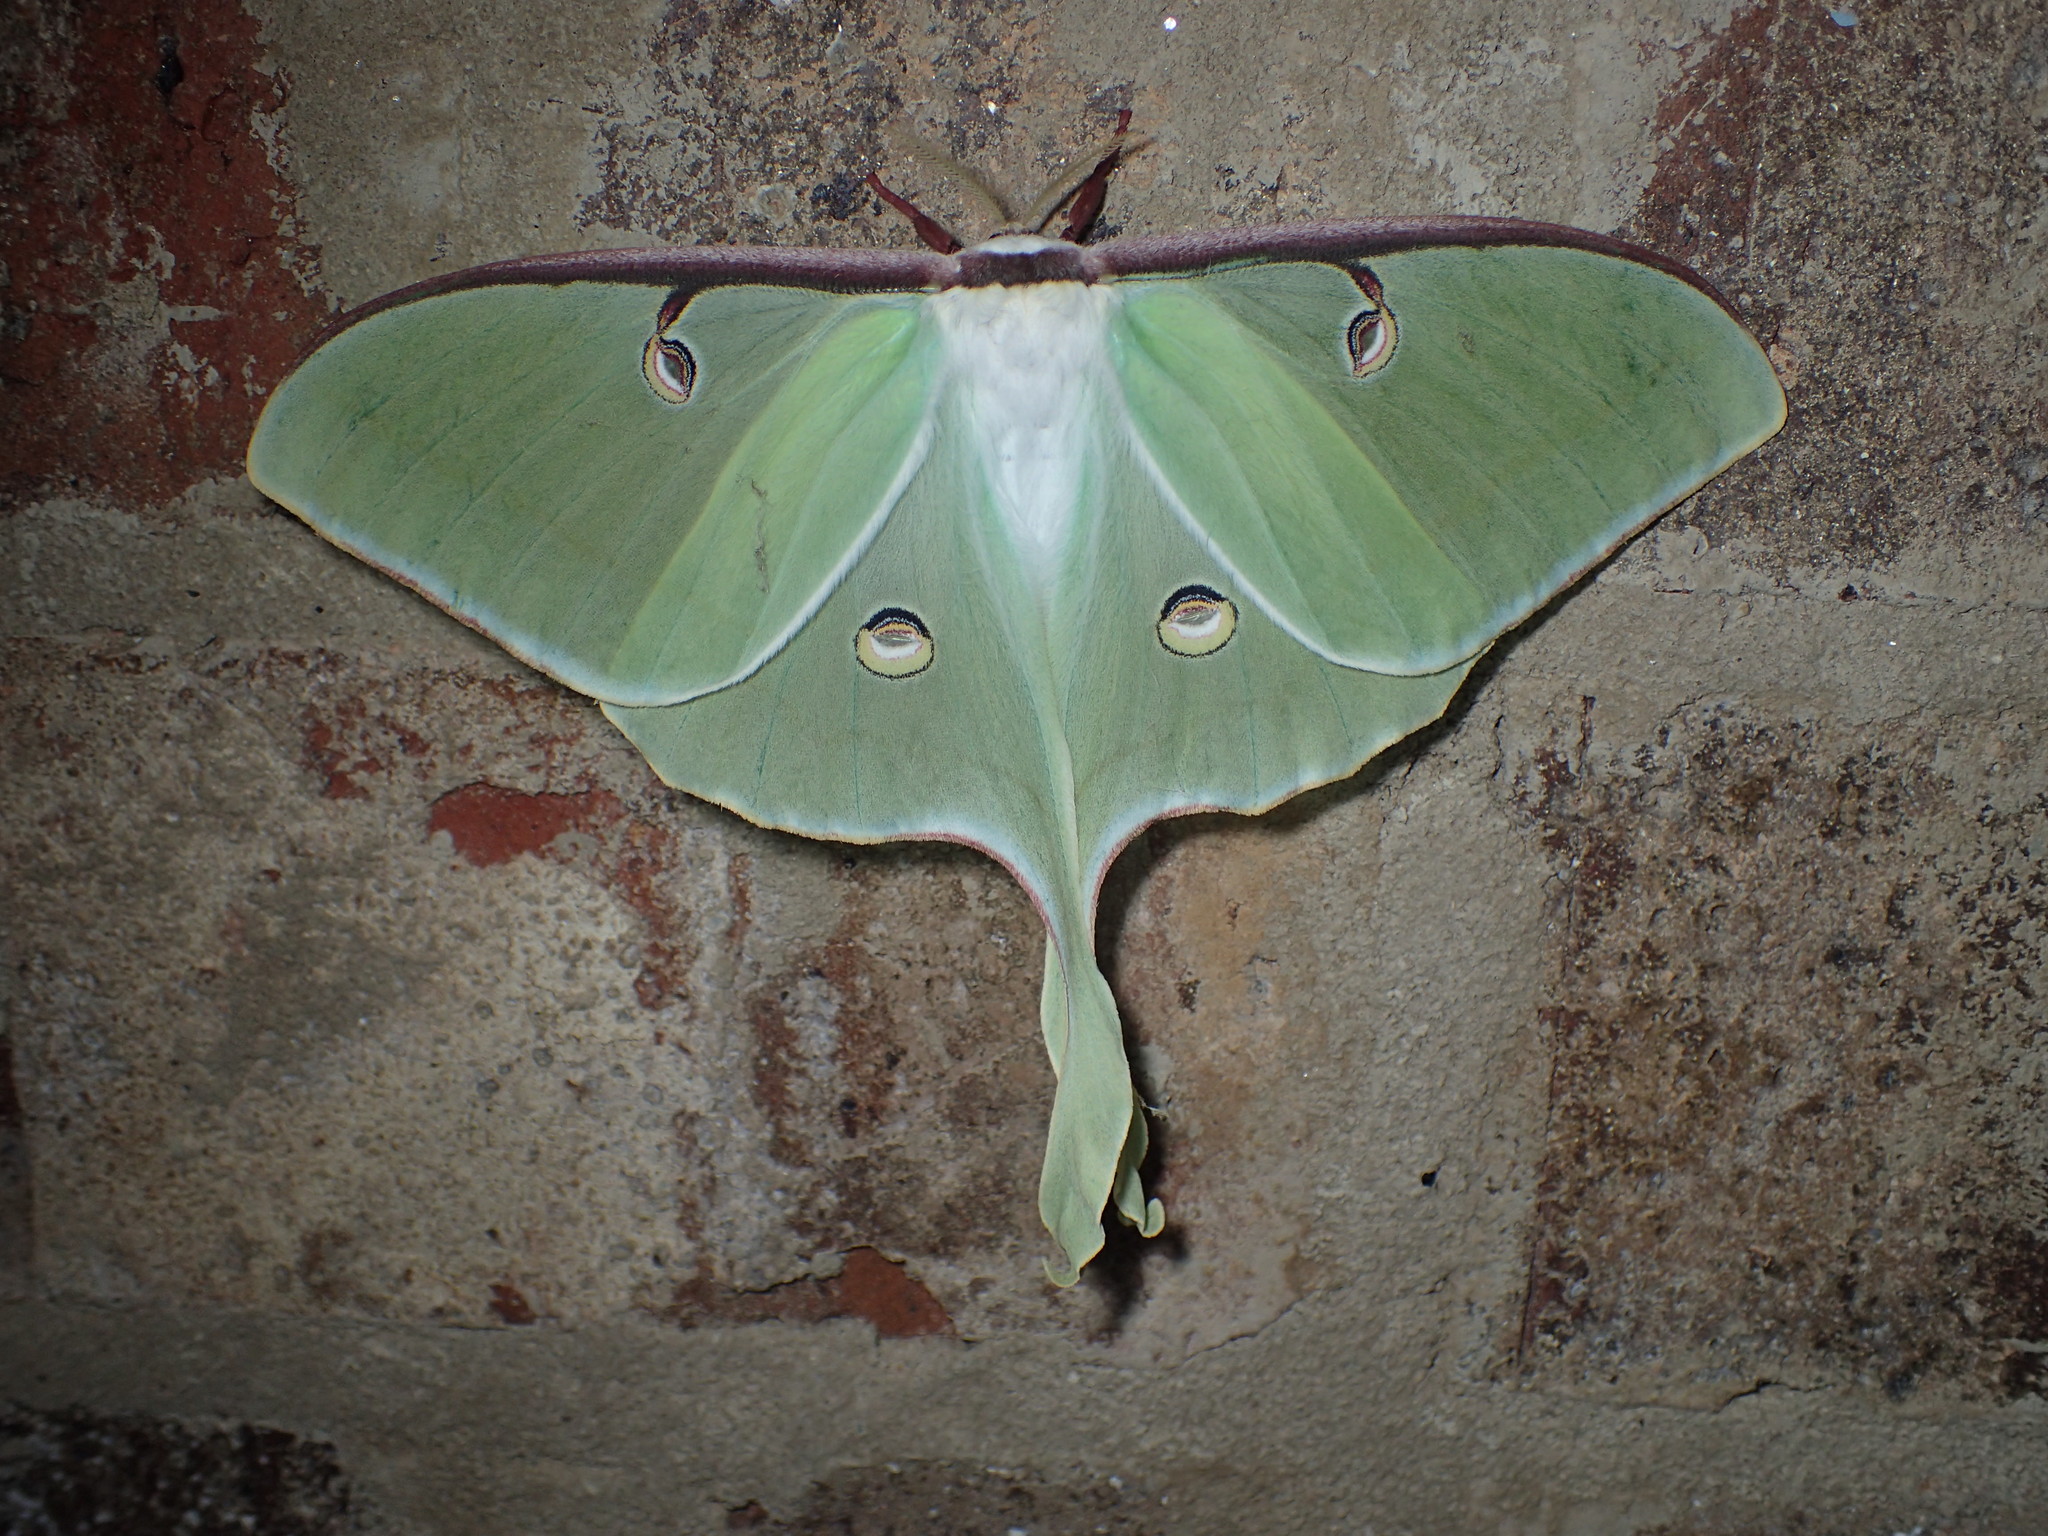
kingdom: Animalia
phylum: Arthropoda
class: Insecta
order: Lepidoptera
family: Saturniidae
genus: Actias
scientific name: Actias luna
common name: Luna moth
